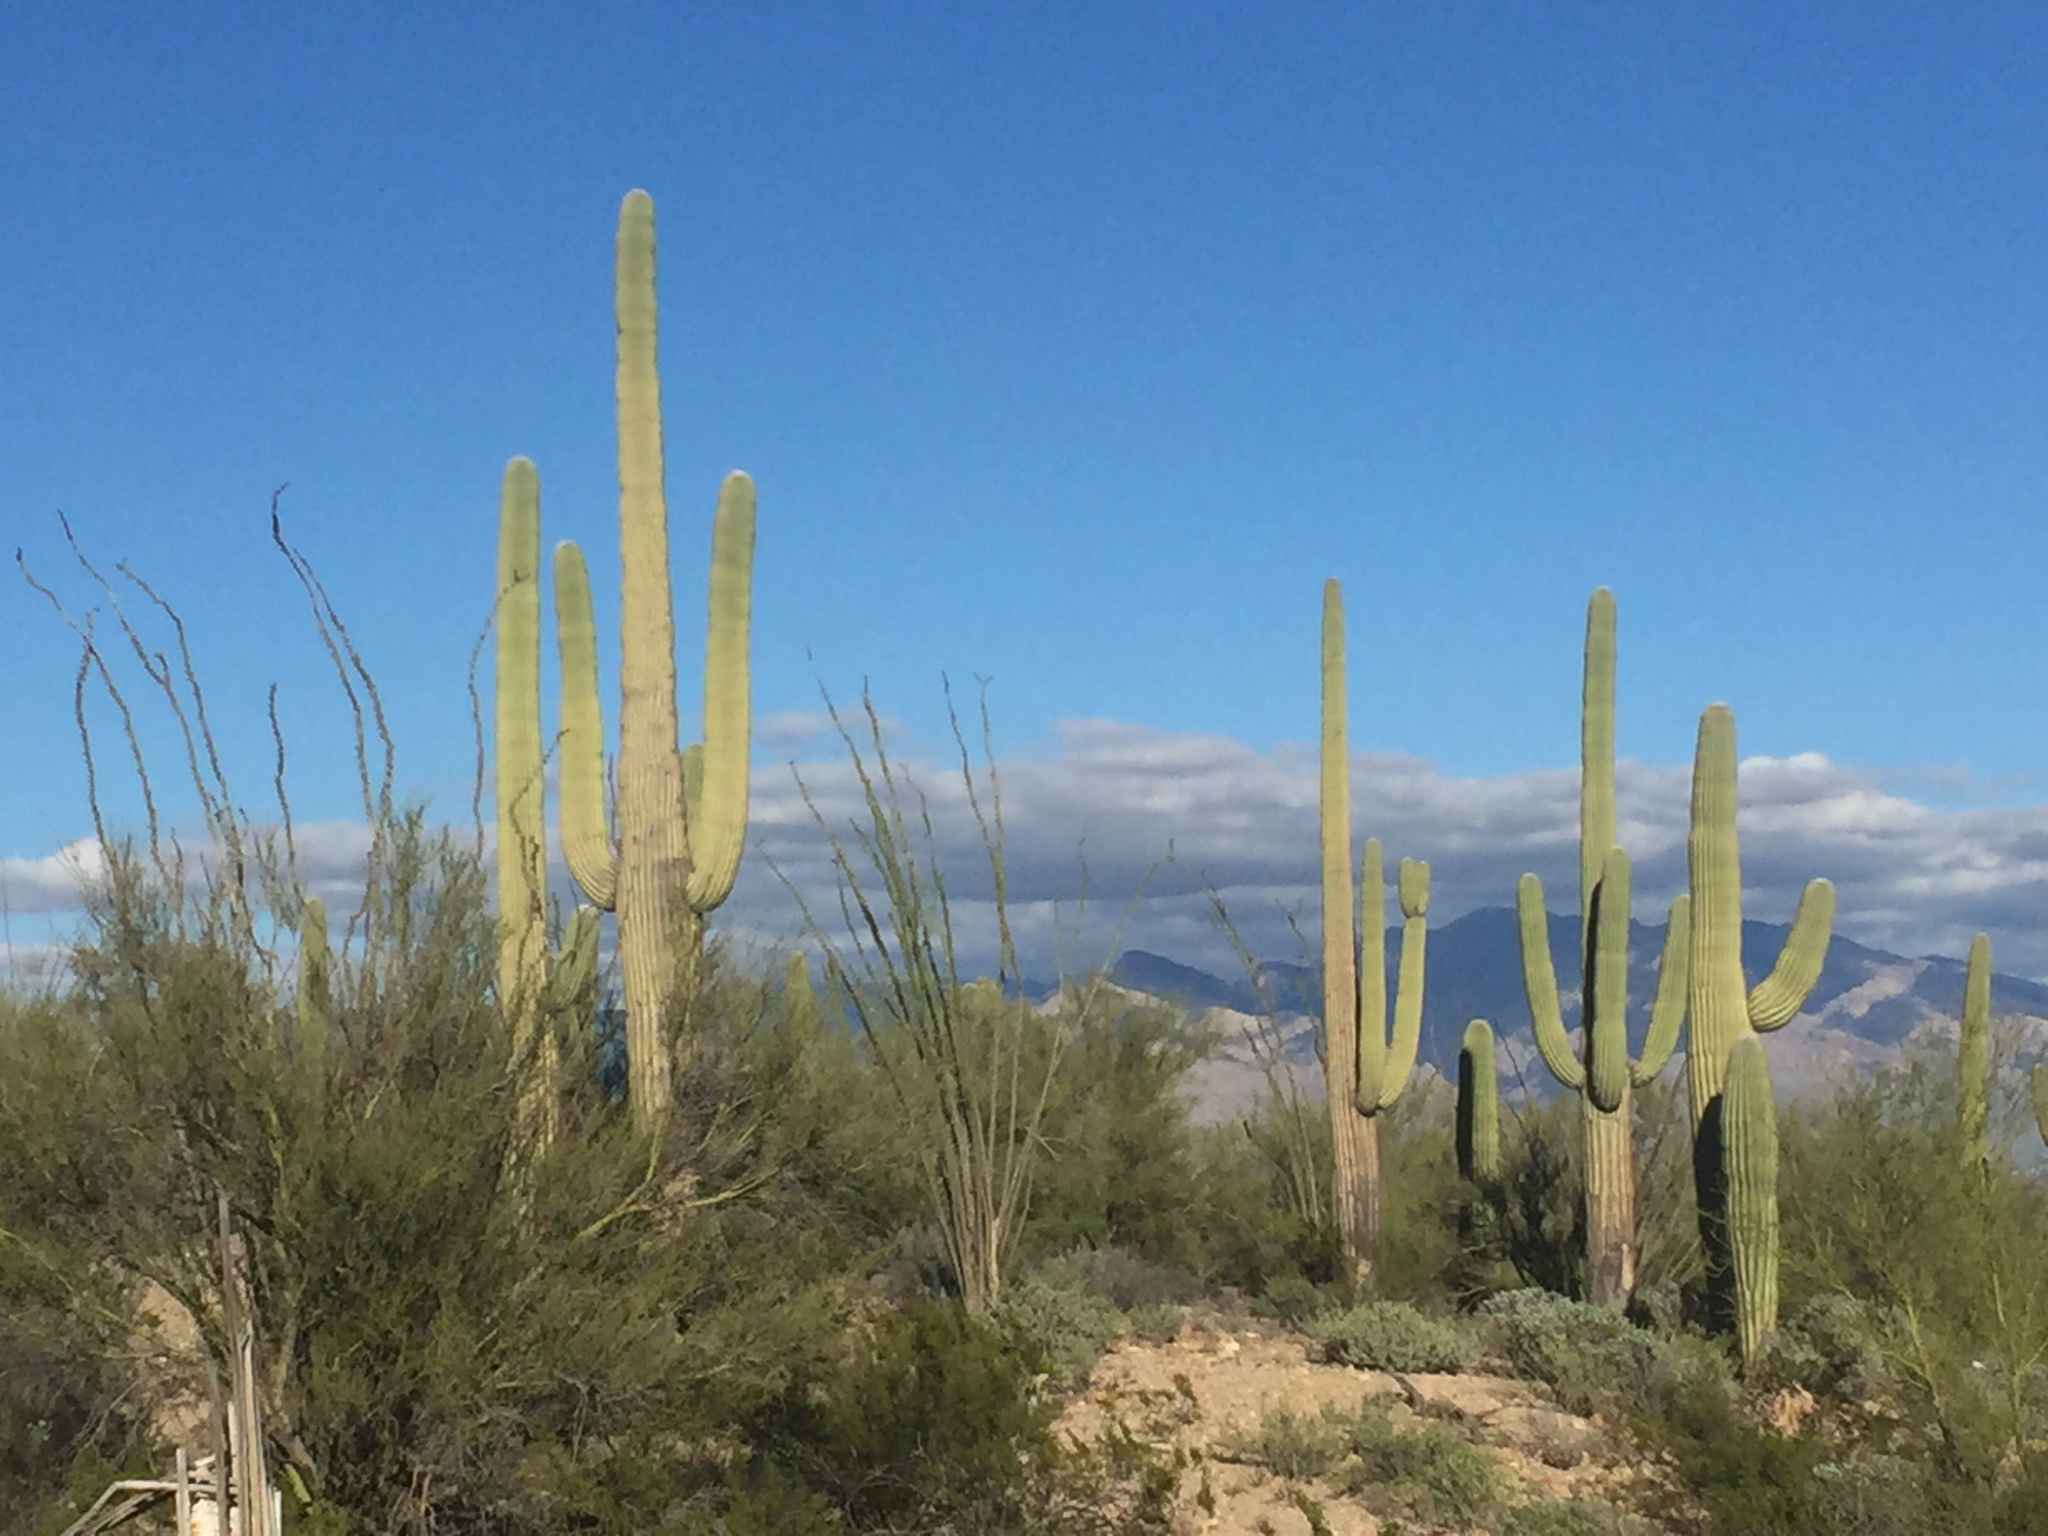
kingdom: Plantae
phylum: Tracheophyta
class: Magnoliopsida
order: Caryophyllales
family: Cactaceae
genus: Carnegiea
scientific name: Carnegiea gigantea
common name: Saguaro
